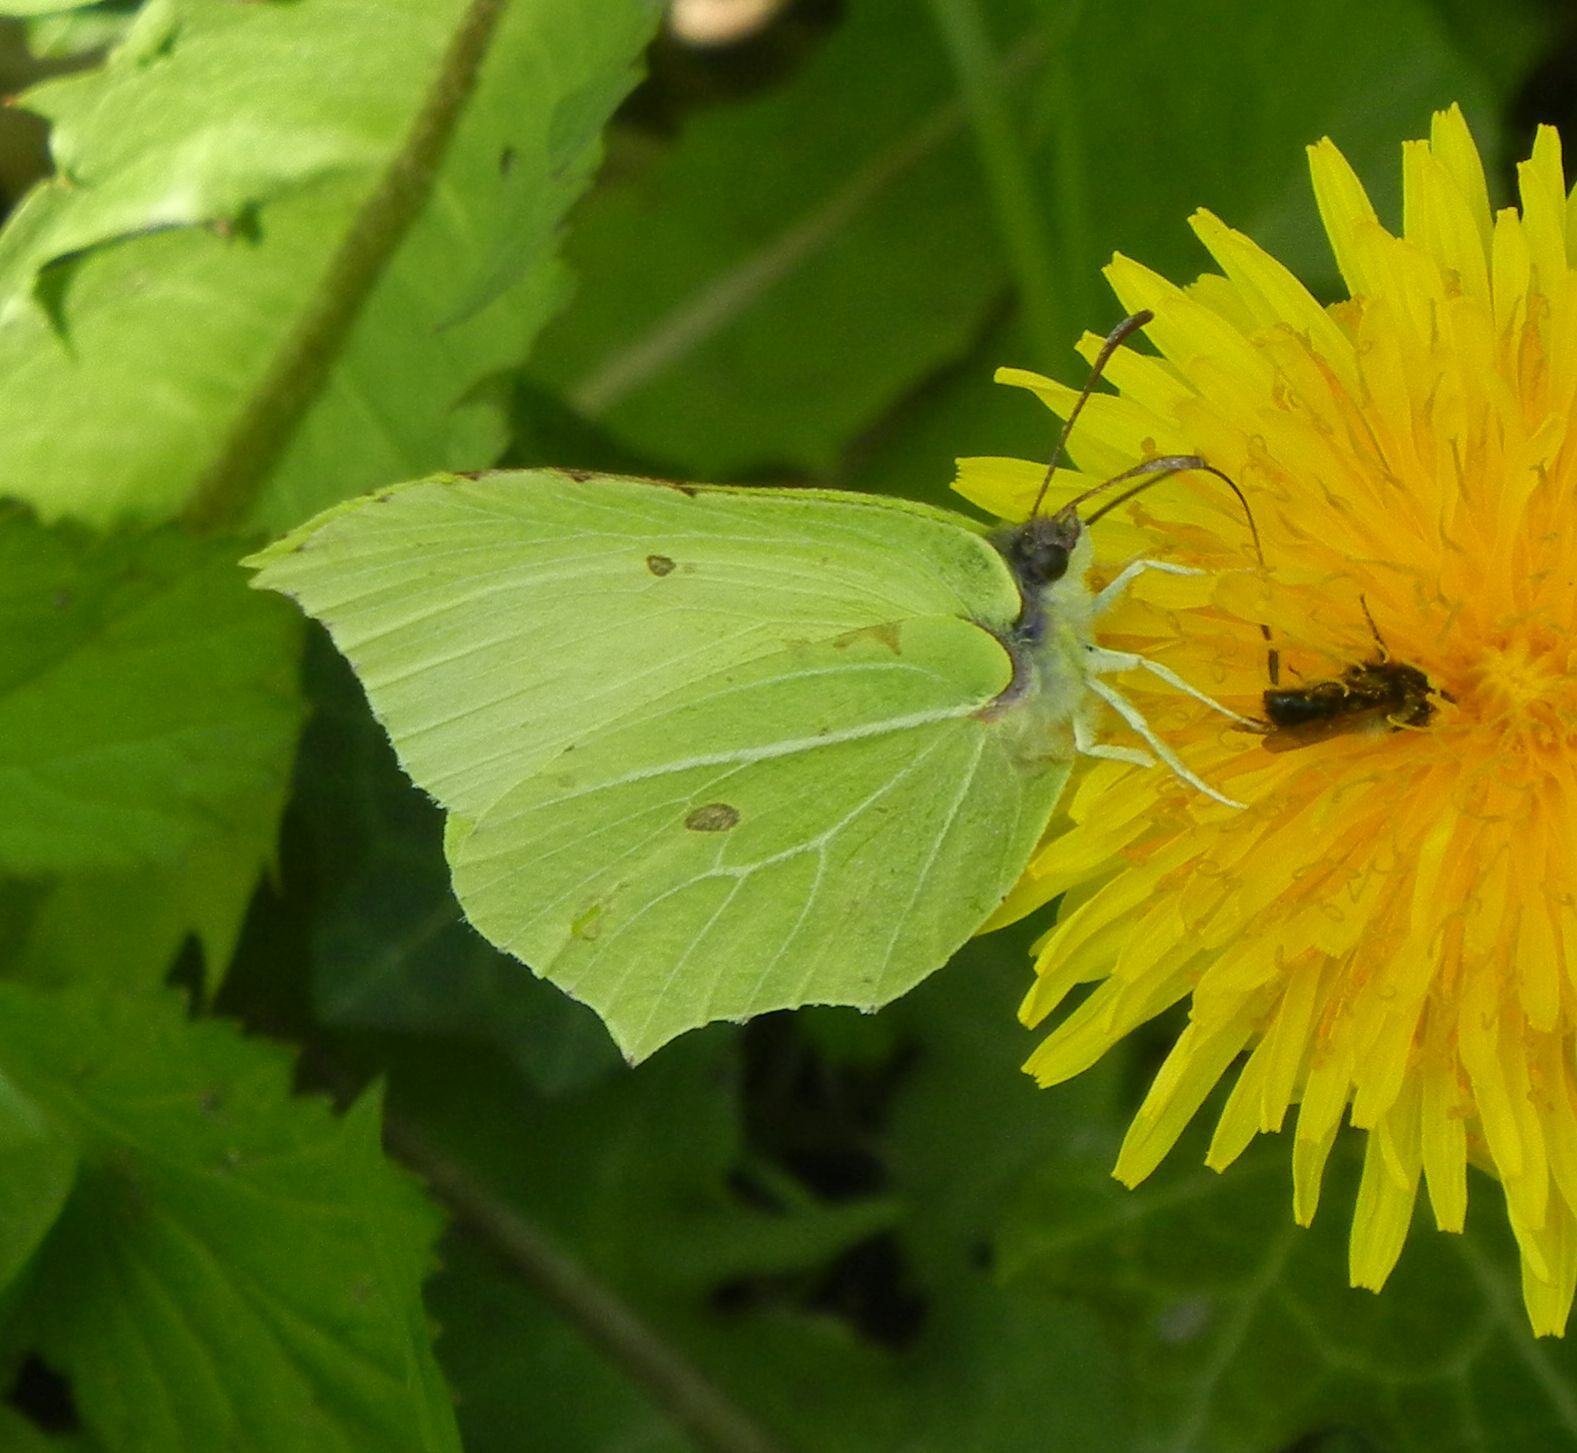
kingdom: Animalia
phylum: Arthropoda
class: Insecta
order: Lepidoptera
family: Pieridae
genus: Gonepteryx
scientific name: Gonepteryx rhamni
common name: Brimstone
